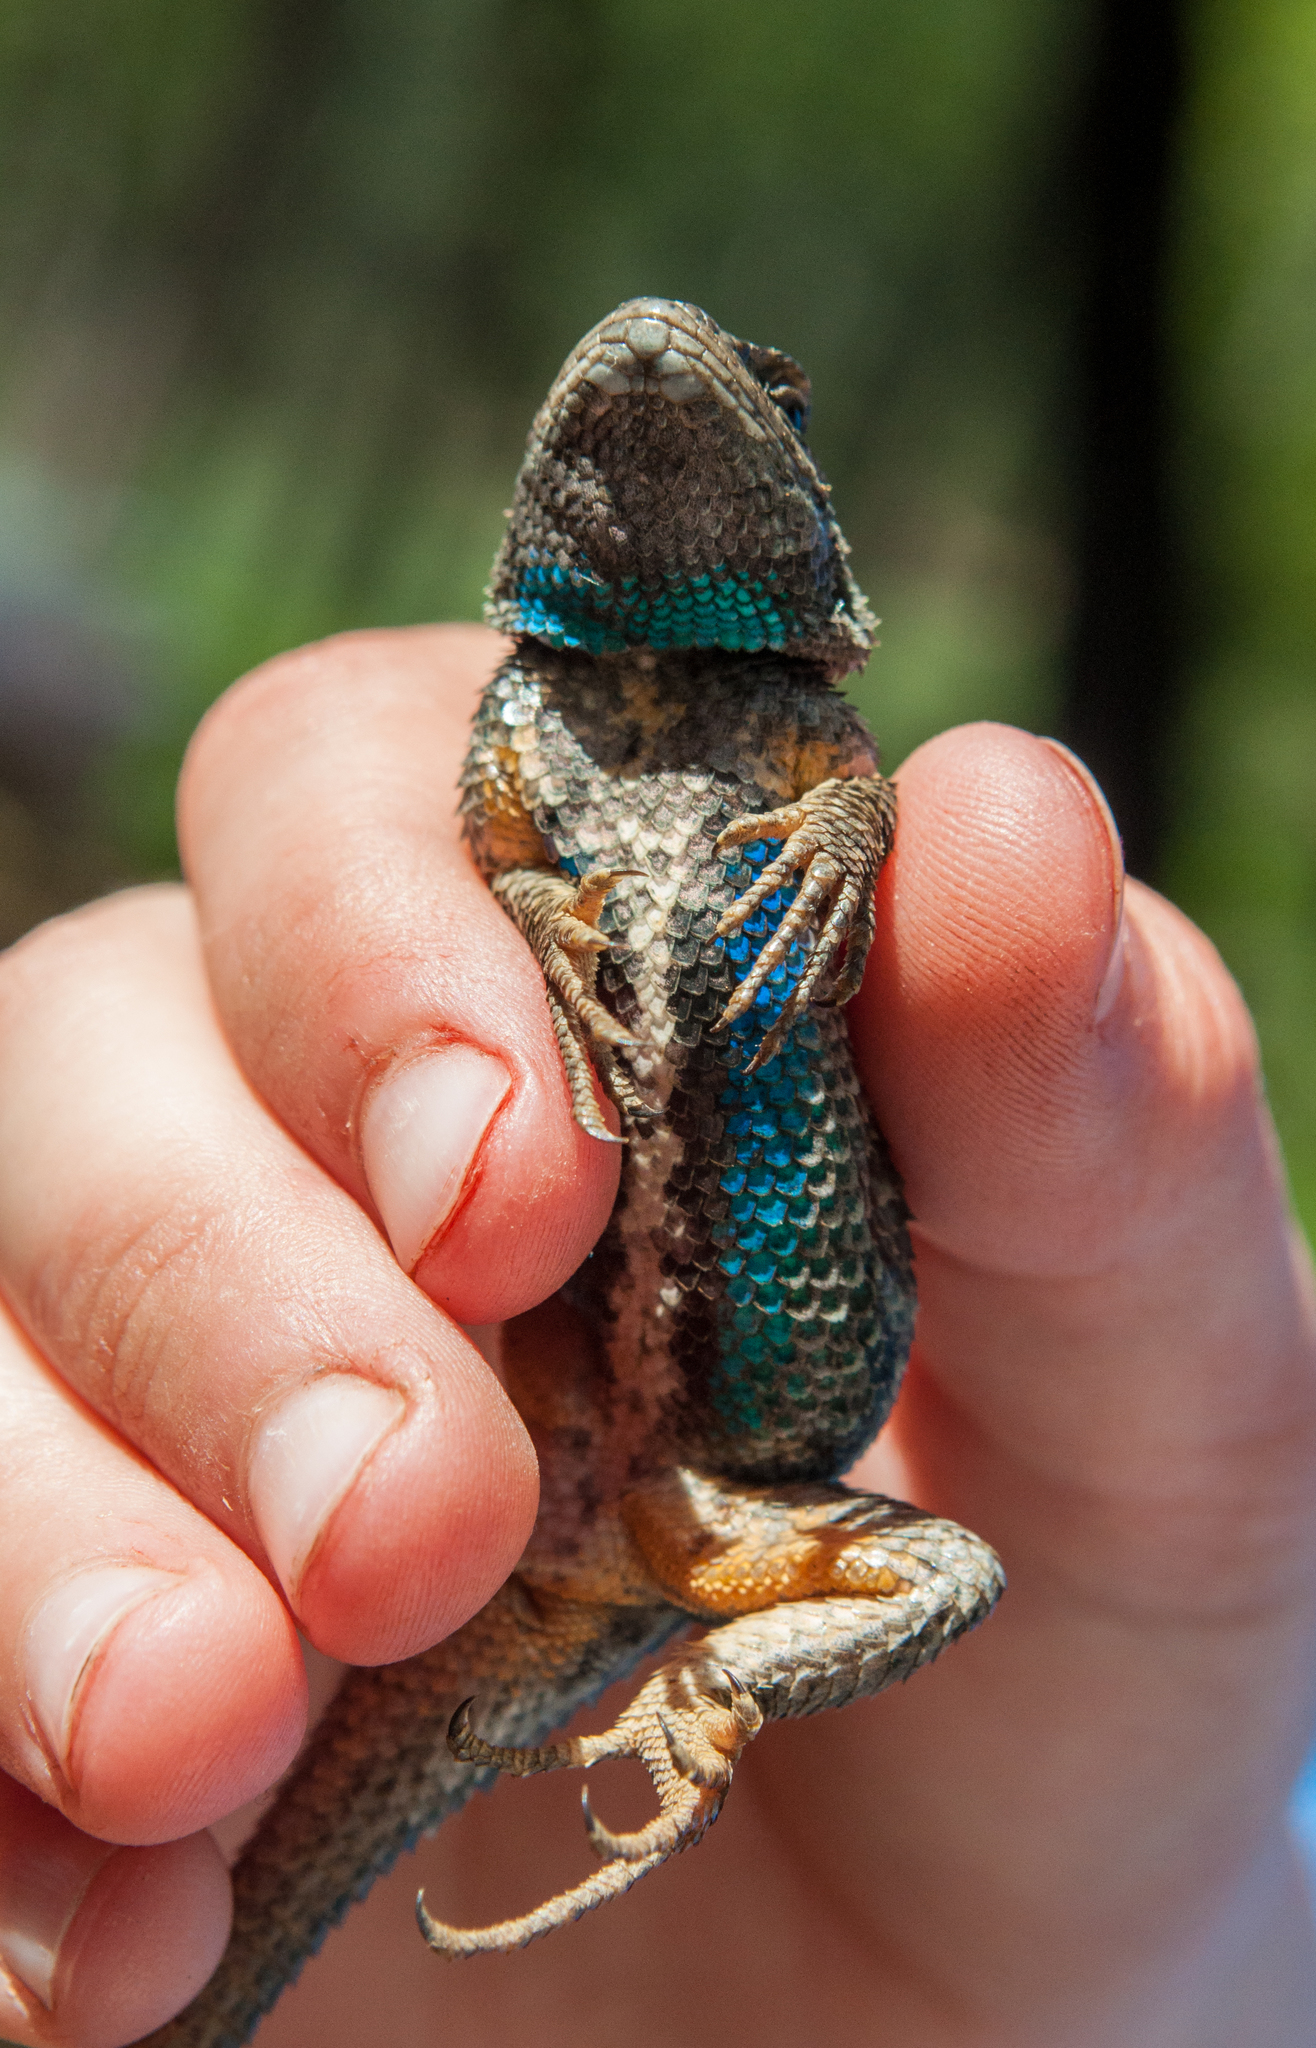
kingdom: Animalia
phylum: Chordata
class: Squamata
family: Phrynosomatidae
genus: Sceloporus
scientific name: Sceloporus occidentalis
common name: Western fence lizard
